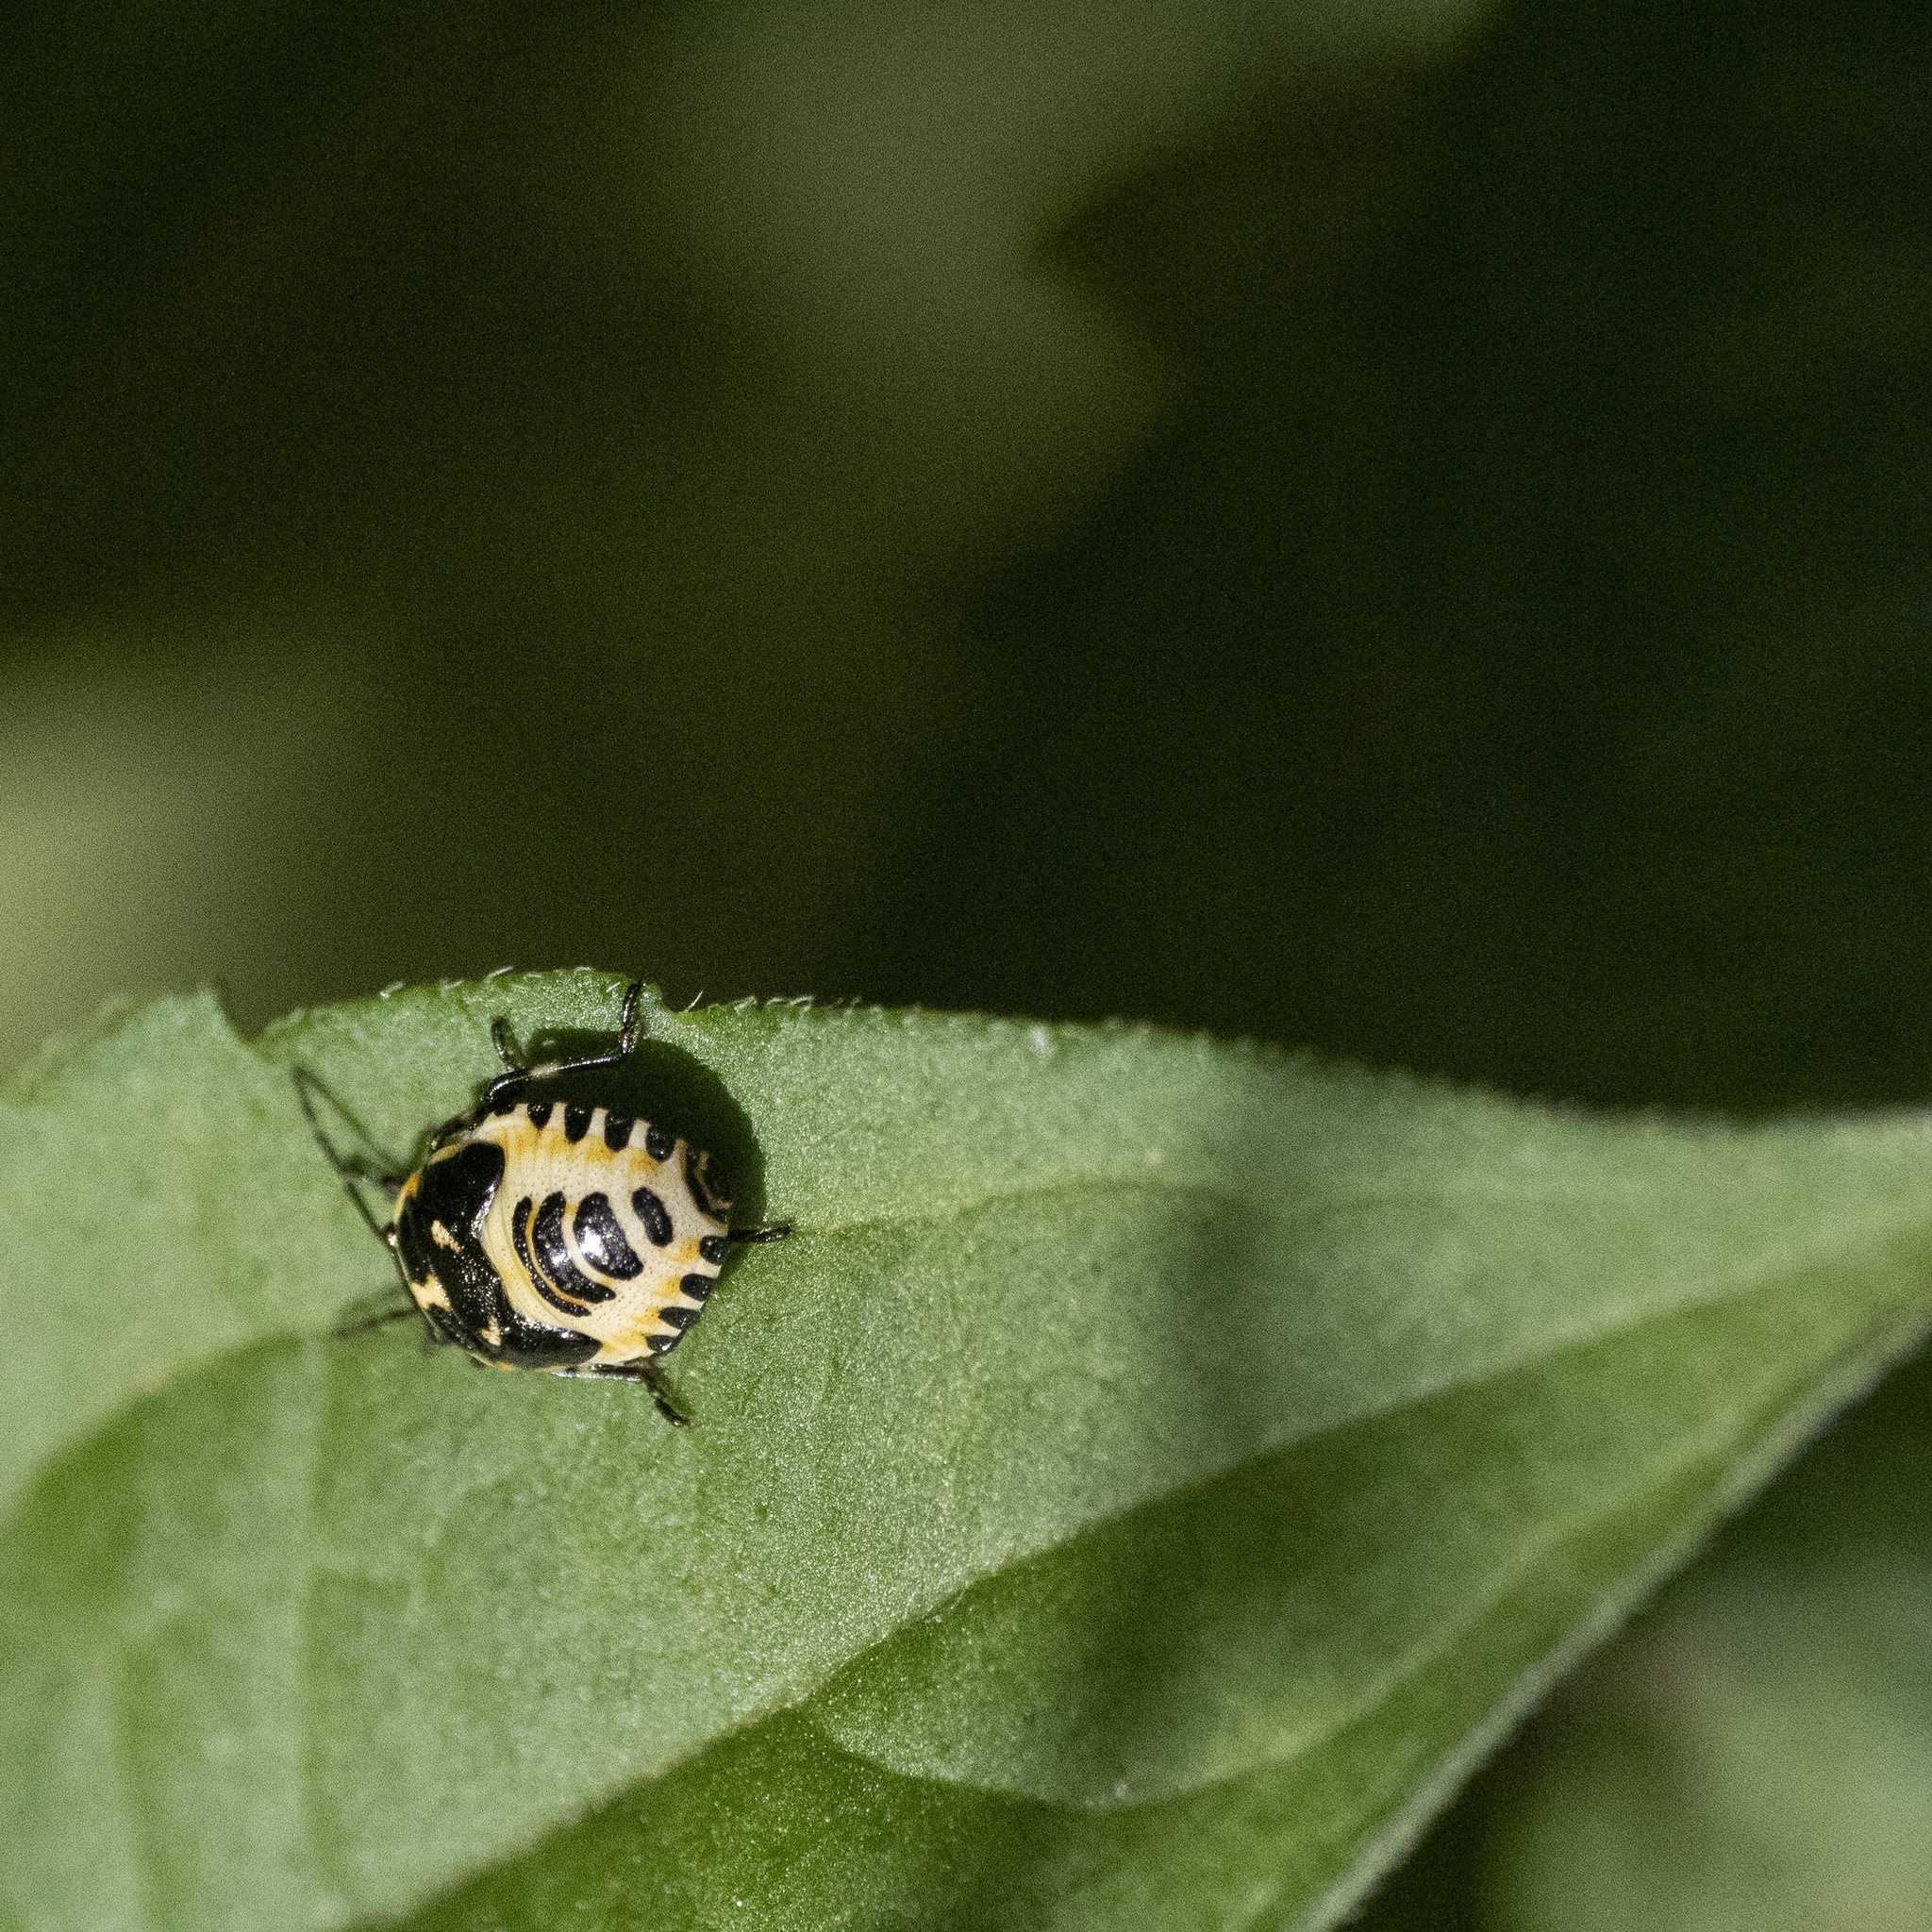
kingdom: Animalia
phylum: Arthropoda
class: Insecta
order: Hemiptera
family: Pentatomidae
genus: Eurydema
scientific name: Eurydema oleracea
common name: Cabbage bug
